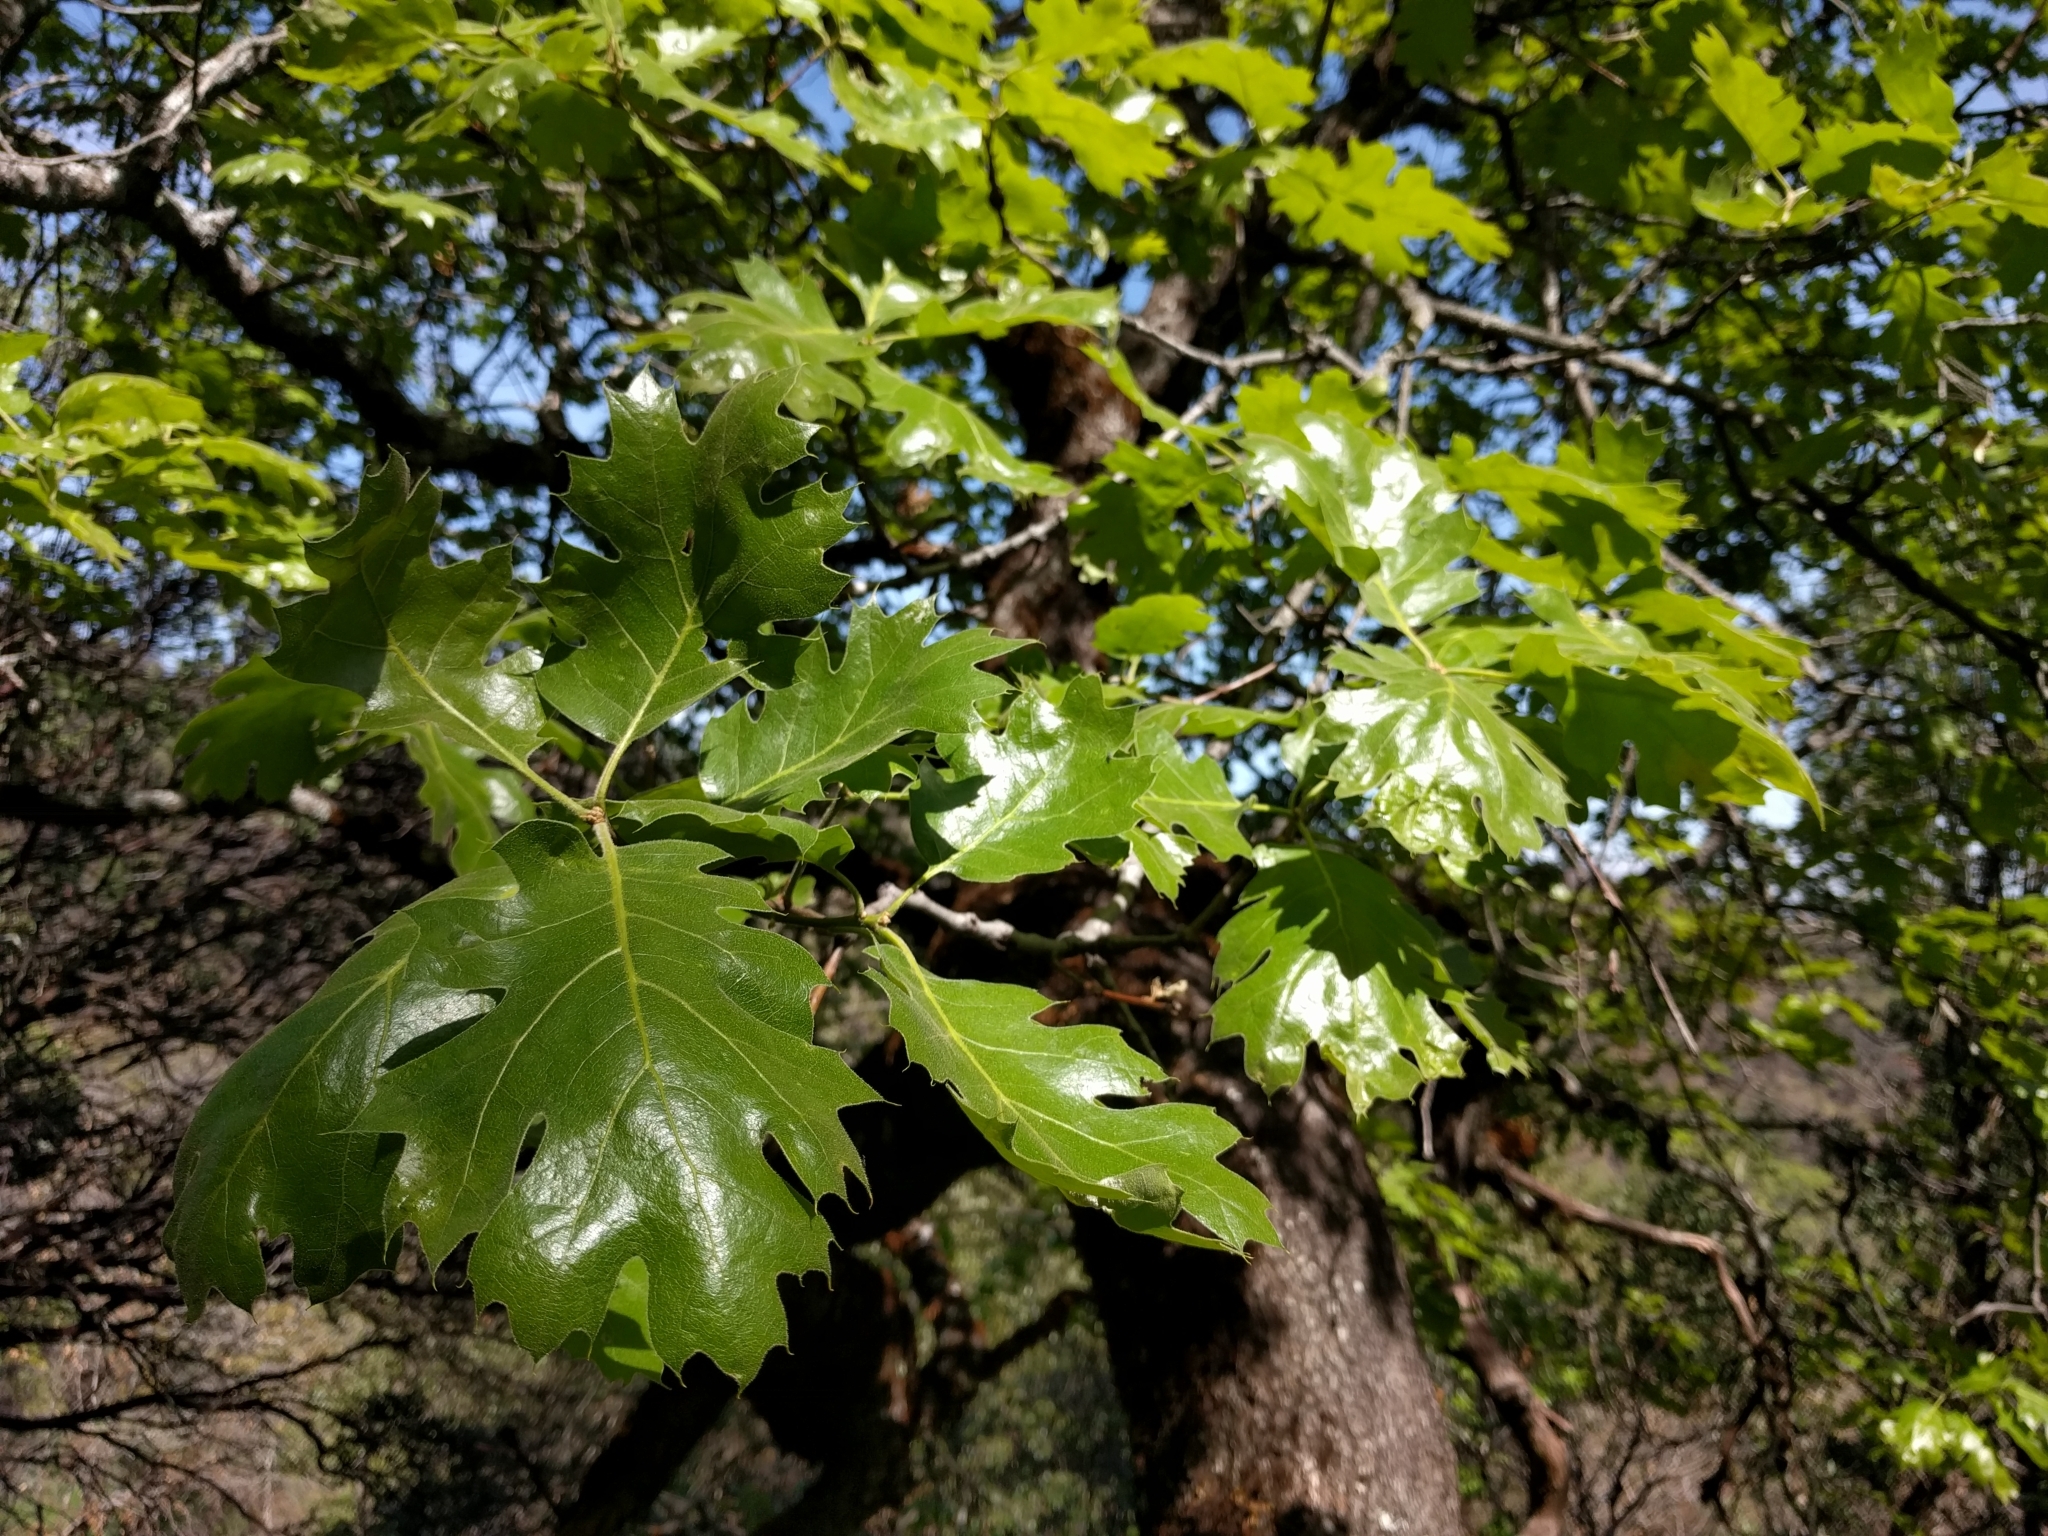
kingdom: Plantae
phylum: Tracheophyta
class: Magnoliopsida
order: Fagales
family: Fagaceae
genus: Quercus
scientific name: Quercus kelloggii
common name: California black oak
